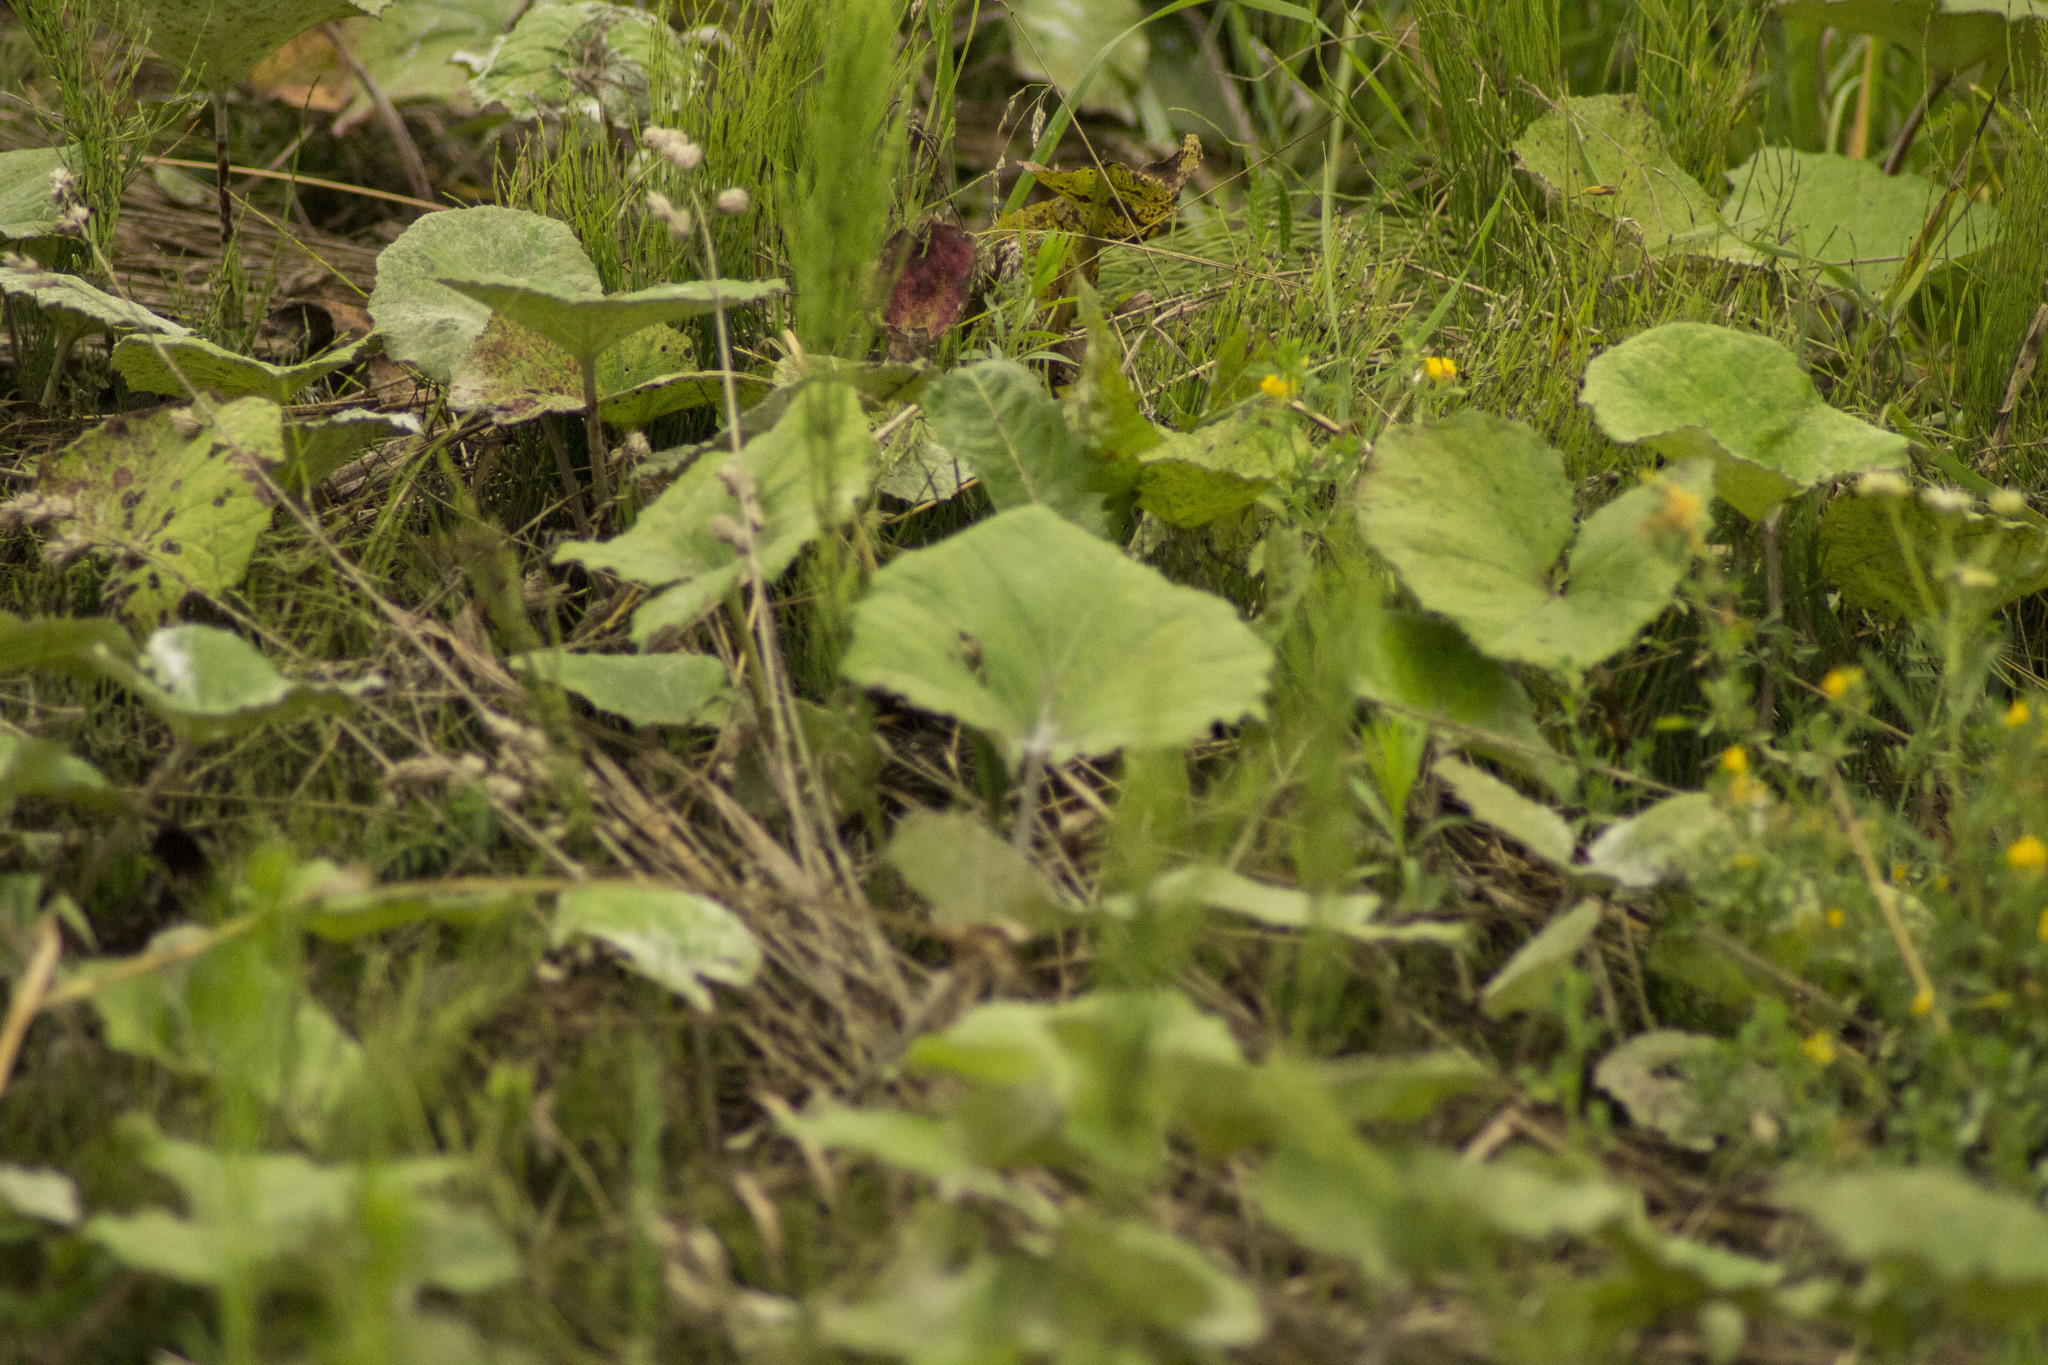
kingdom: Plantae
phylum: Tracheophyta
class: Magnoliopsida
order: Asterales
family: Asteraceae
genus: Tussilago
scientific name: Tussilago farfara
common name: Coltsfoot
